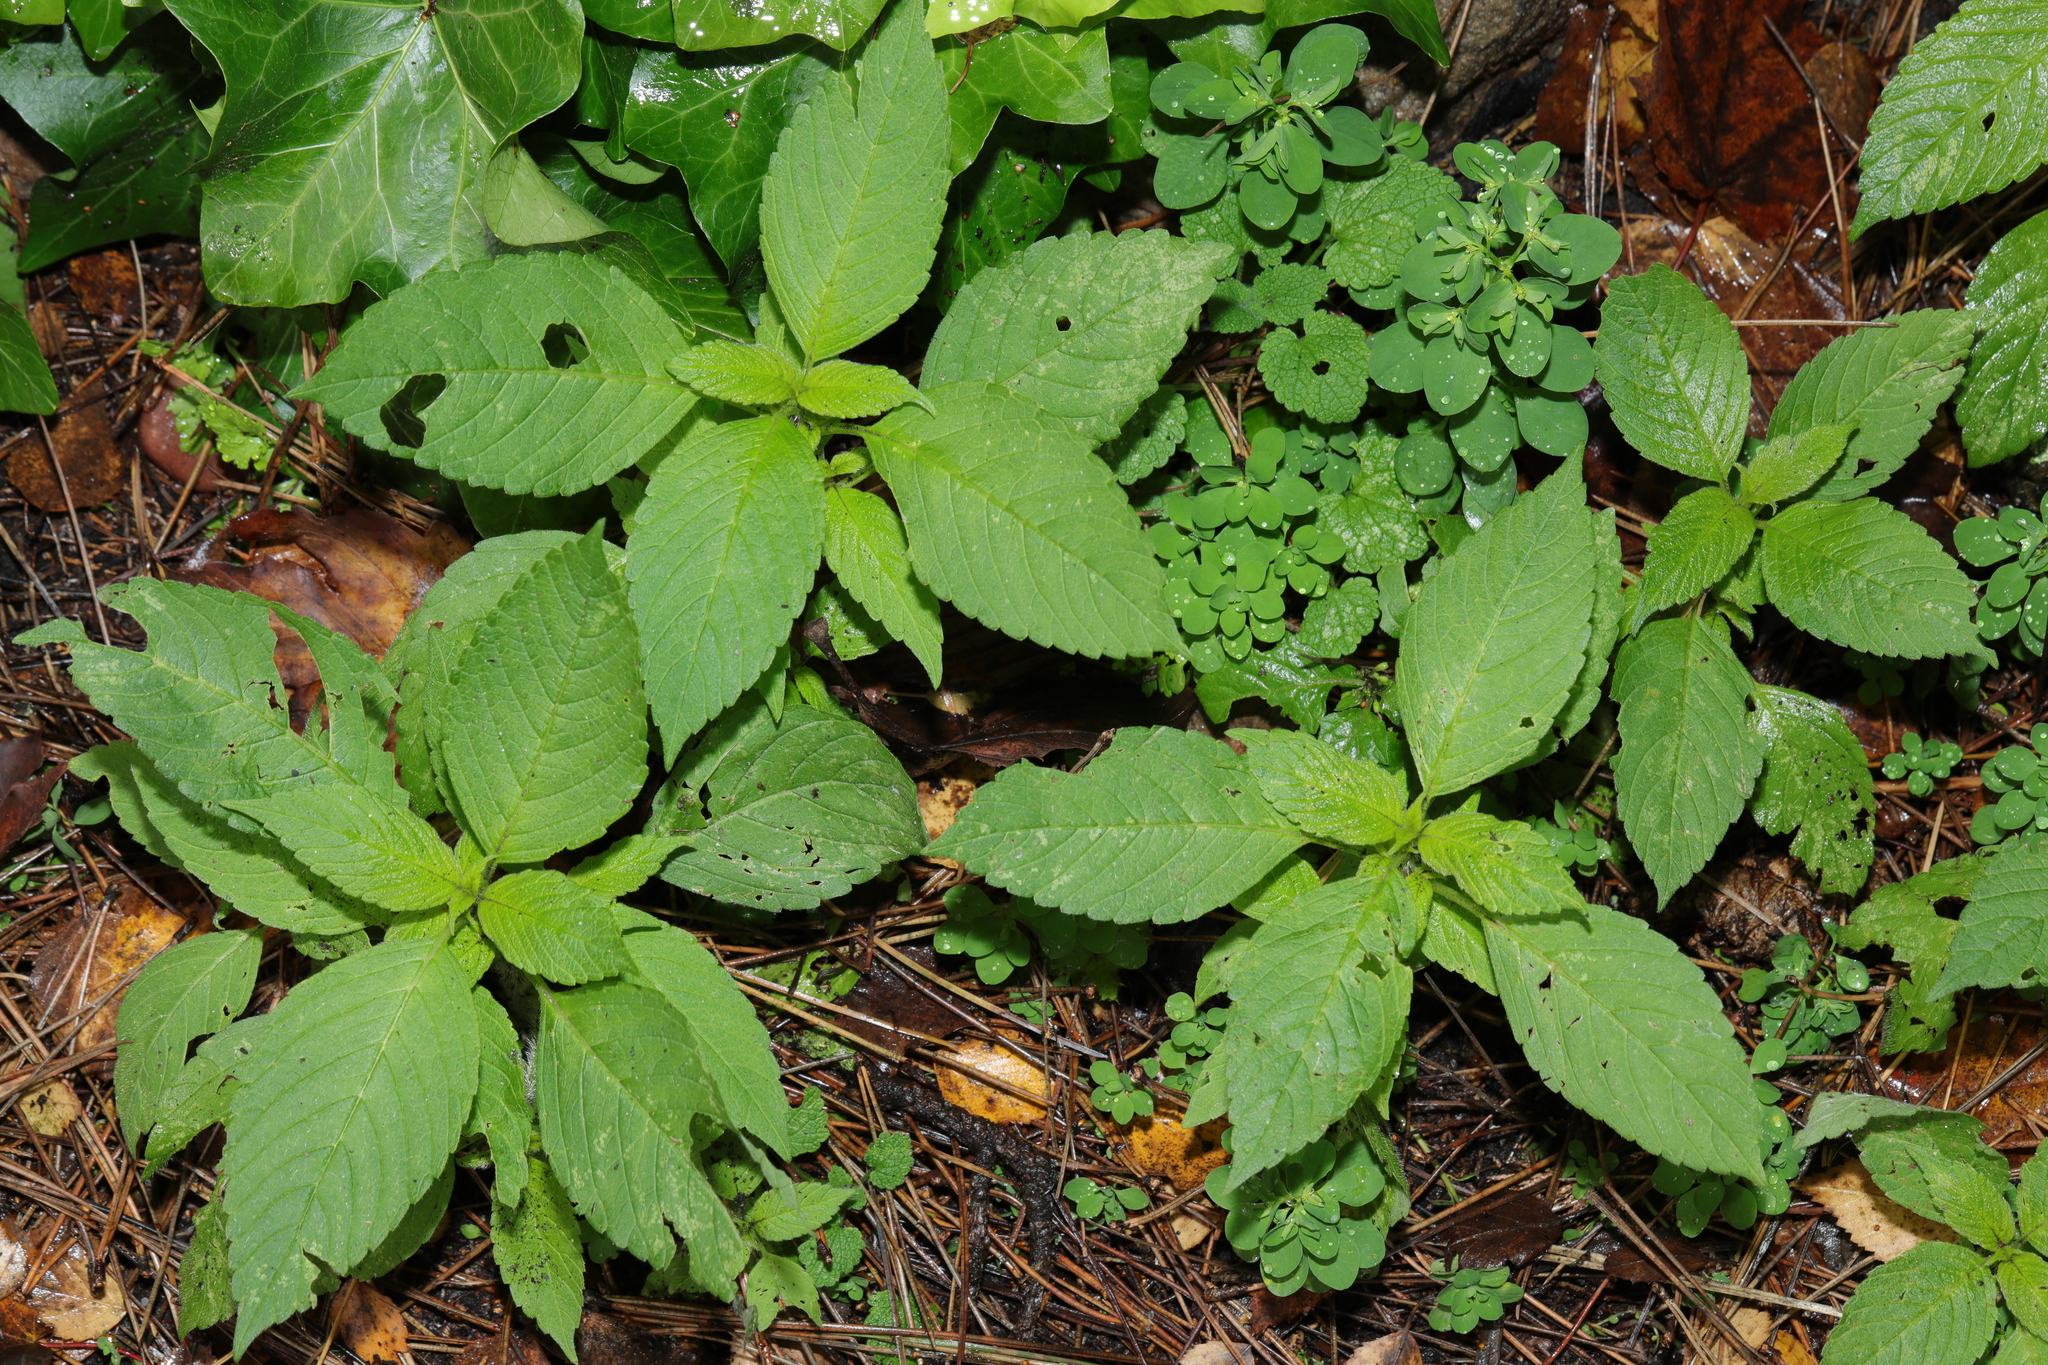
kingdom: Plantae
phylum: Tracheophyta
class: Magnoliopsida
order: Lamiales
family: Lamiaceae
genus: Galeopsis
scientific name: Galeopsis tetrahit
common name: Common hemp-nettle
